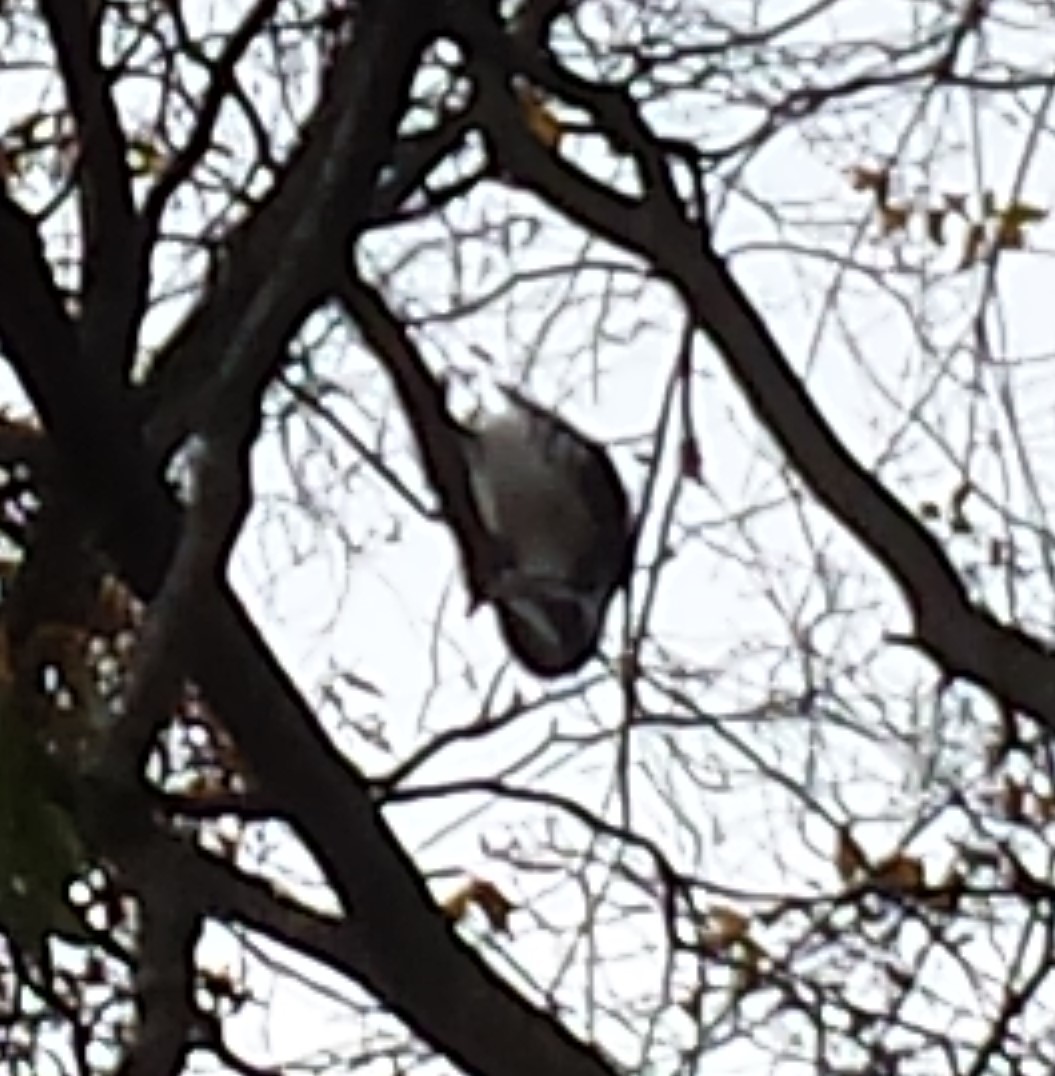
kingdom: Animalia
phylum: Chordata
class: Aves
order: Piciformes
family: Picidae
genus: Dryobates
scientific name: Dryobates pubescens
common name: Downy woodpecker
